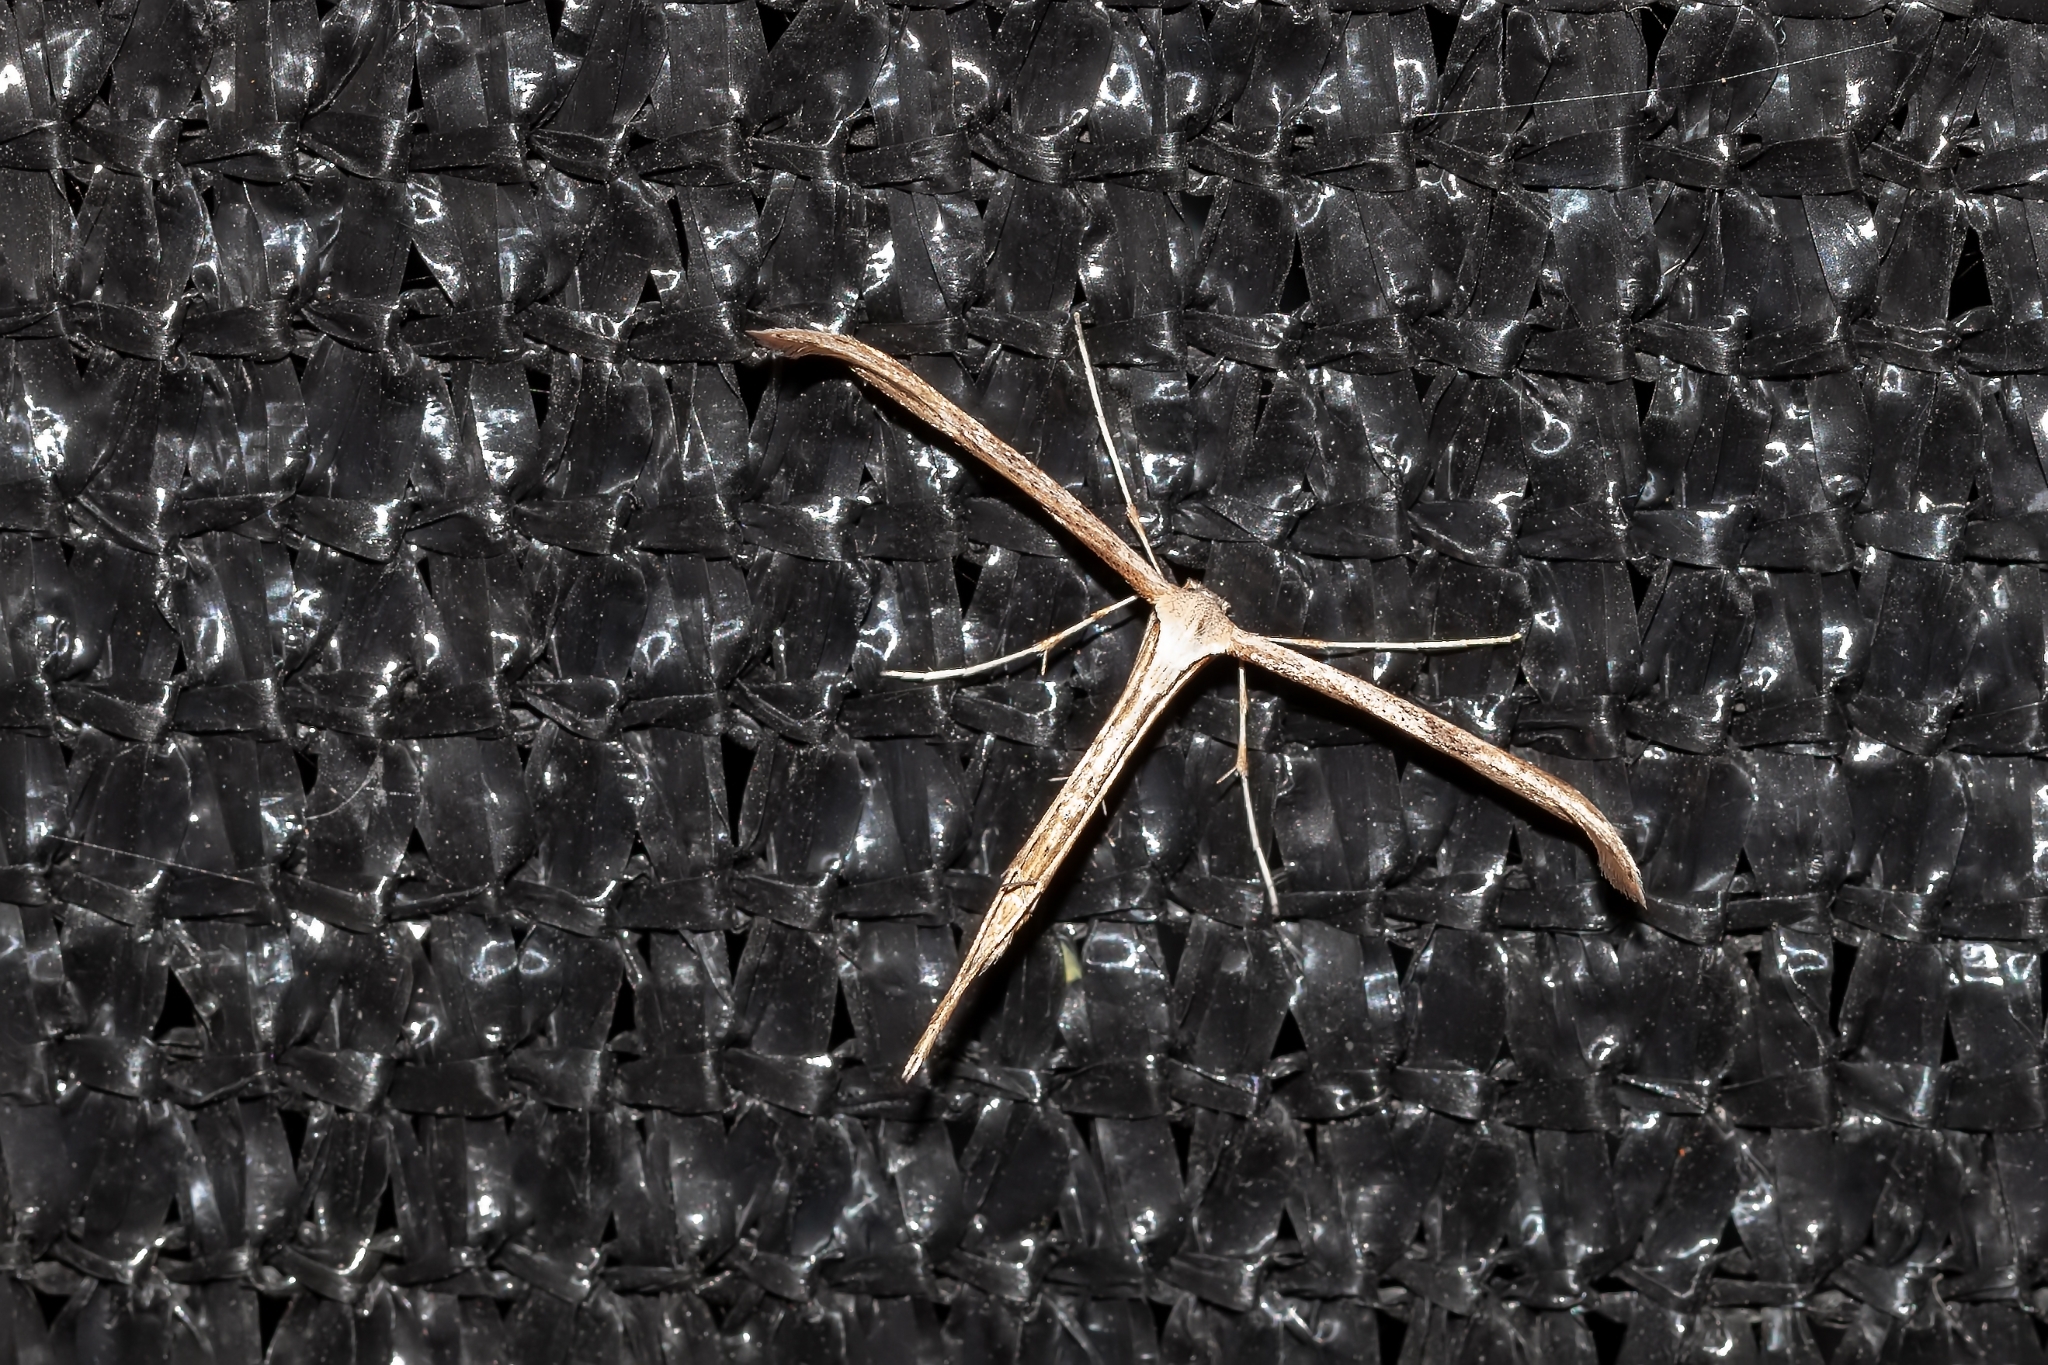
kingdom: Animalia
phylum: Arthropoda
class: Insecta
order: Lepidoptera
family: Pterophoridae
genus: Emmelina
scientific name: Emmelina monodactyla
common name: Common plume
